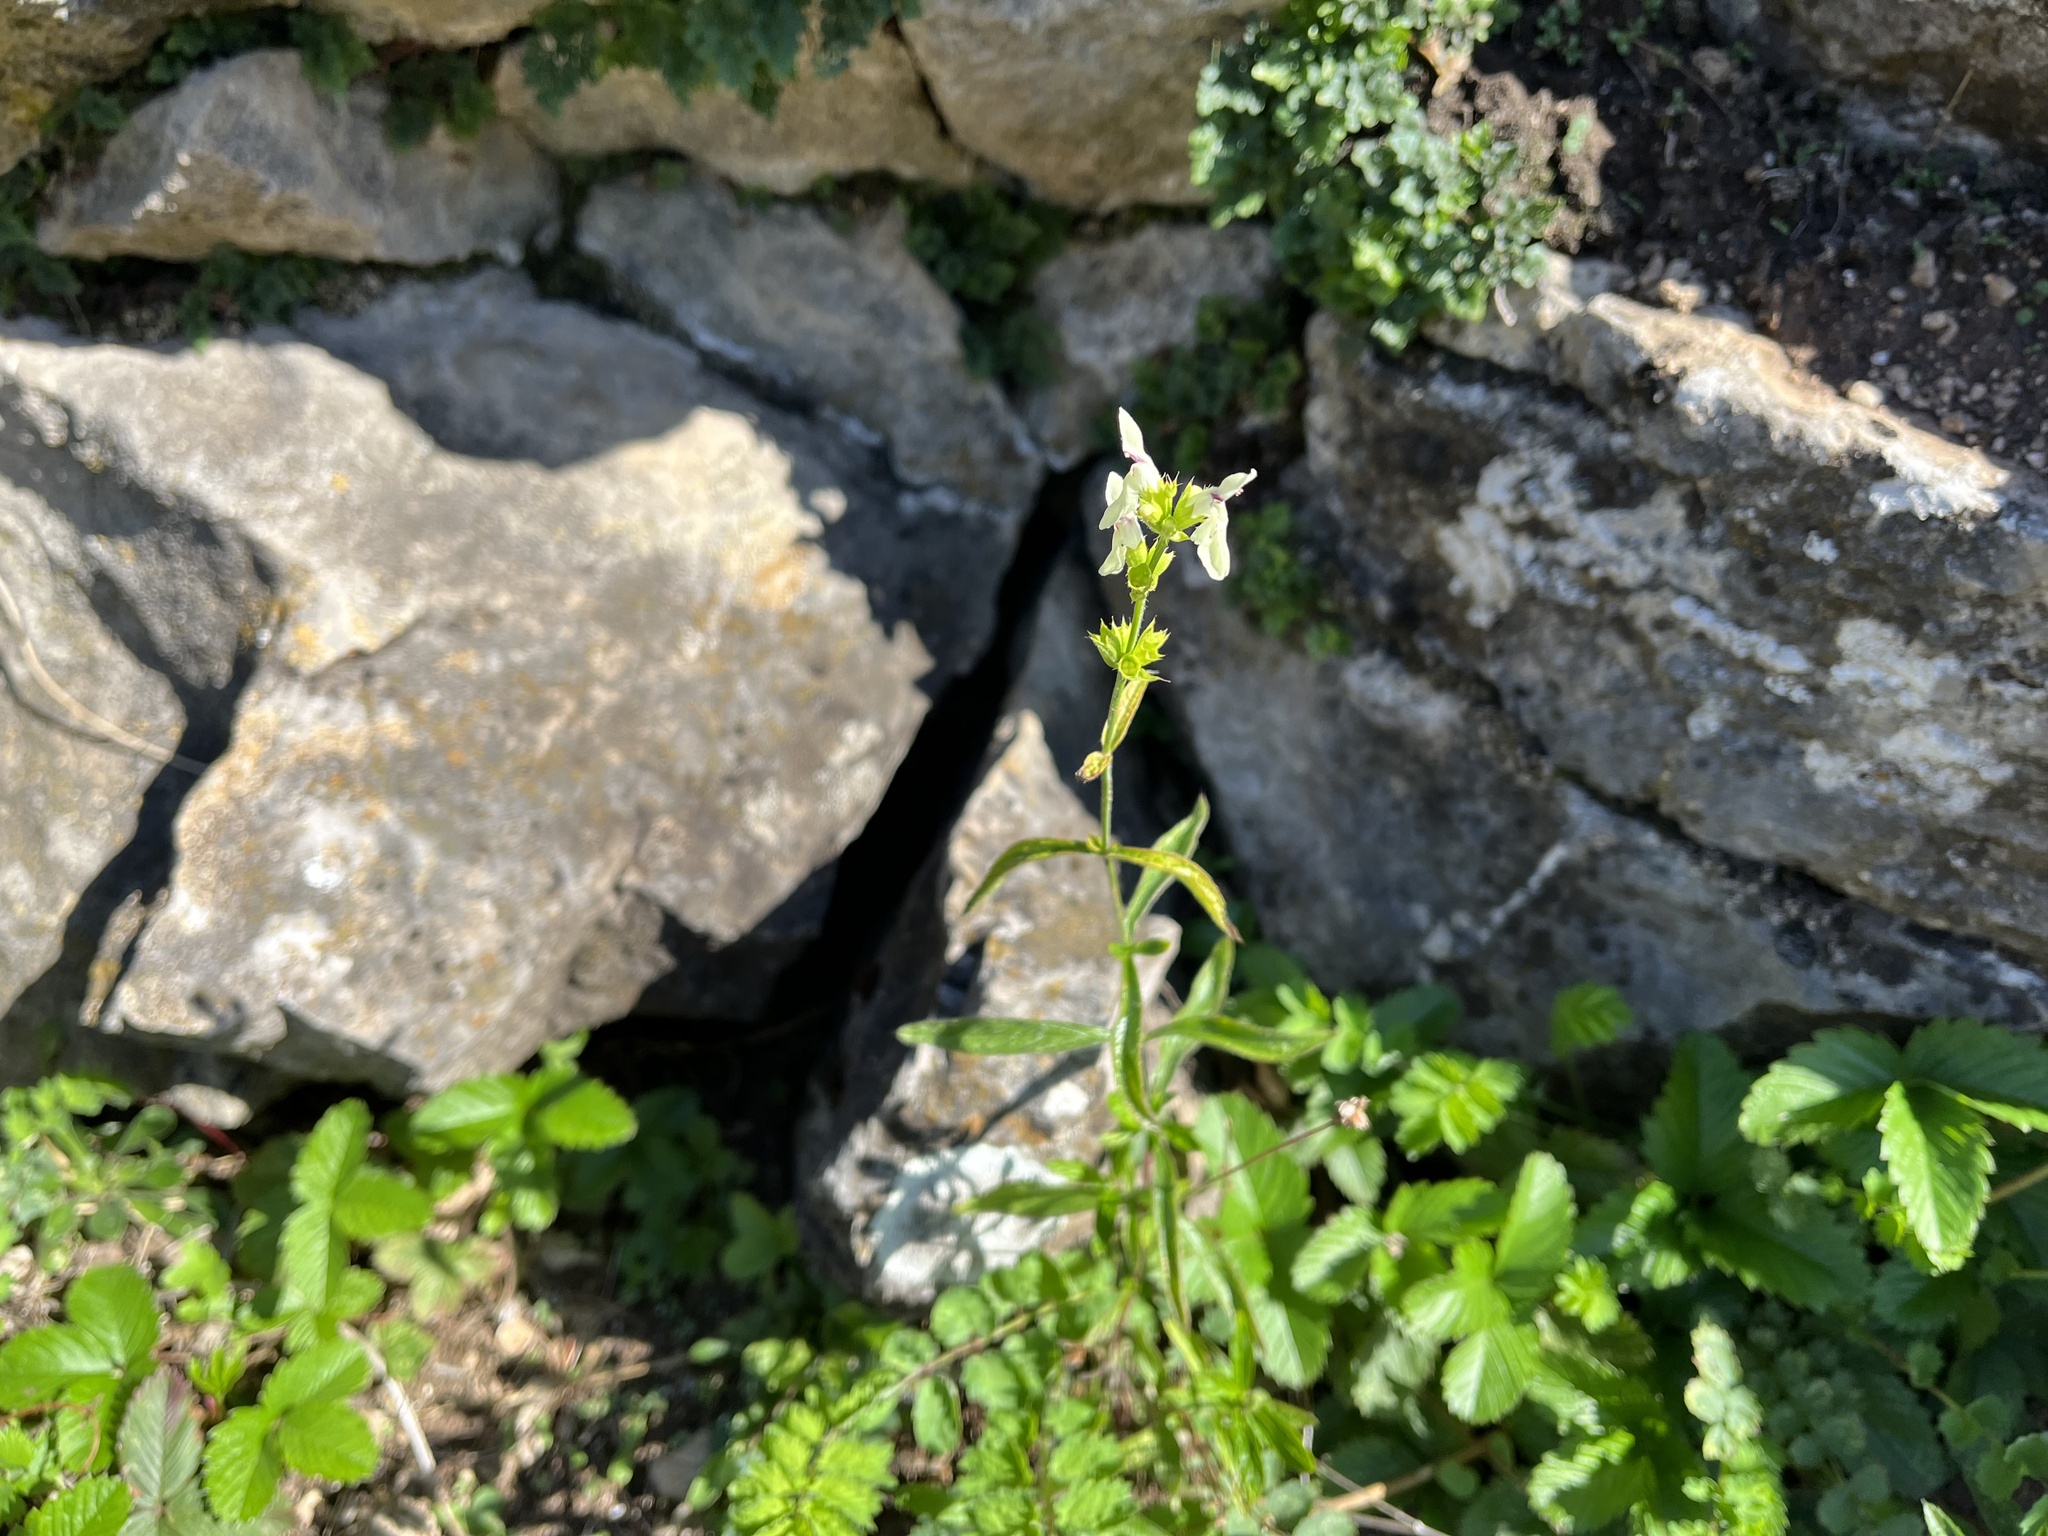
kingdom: Plantae
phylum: Tracheophyta
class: Magnoliopsida
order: Lamiales
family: Lamiaceae
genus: Stachys
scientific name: Stachys recta
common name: Perennial yellow-woundwort
